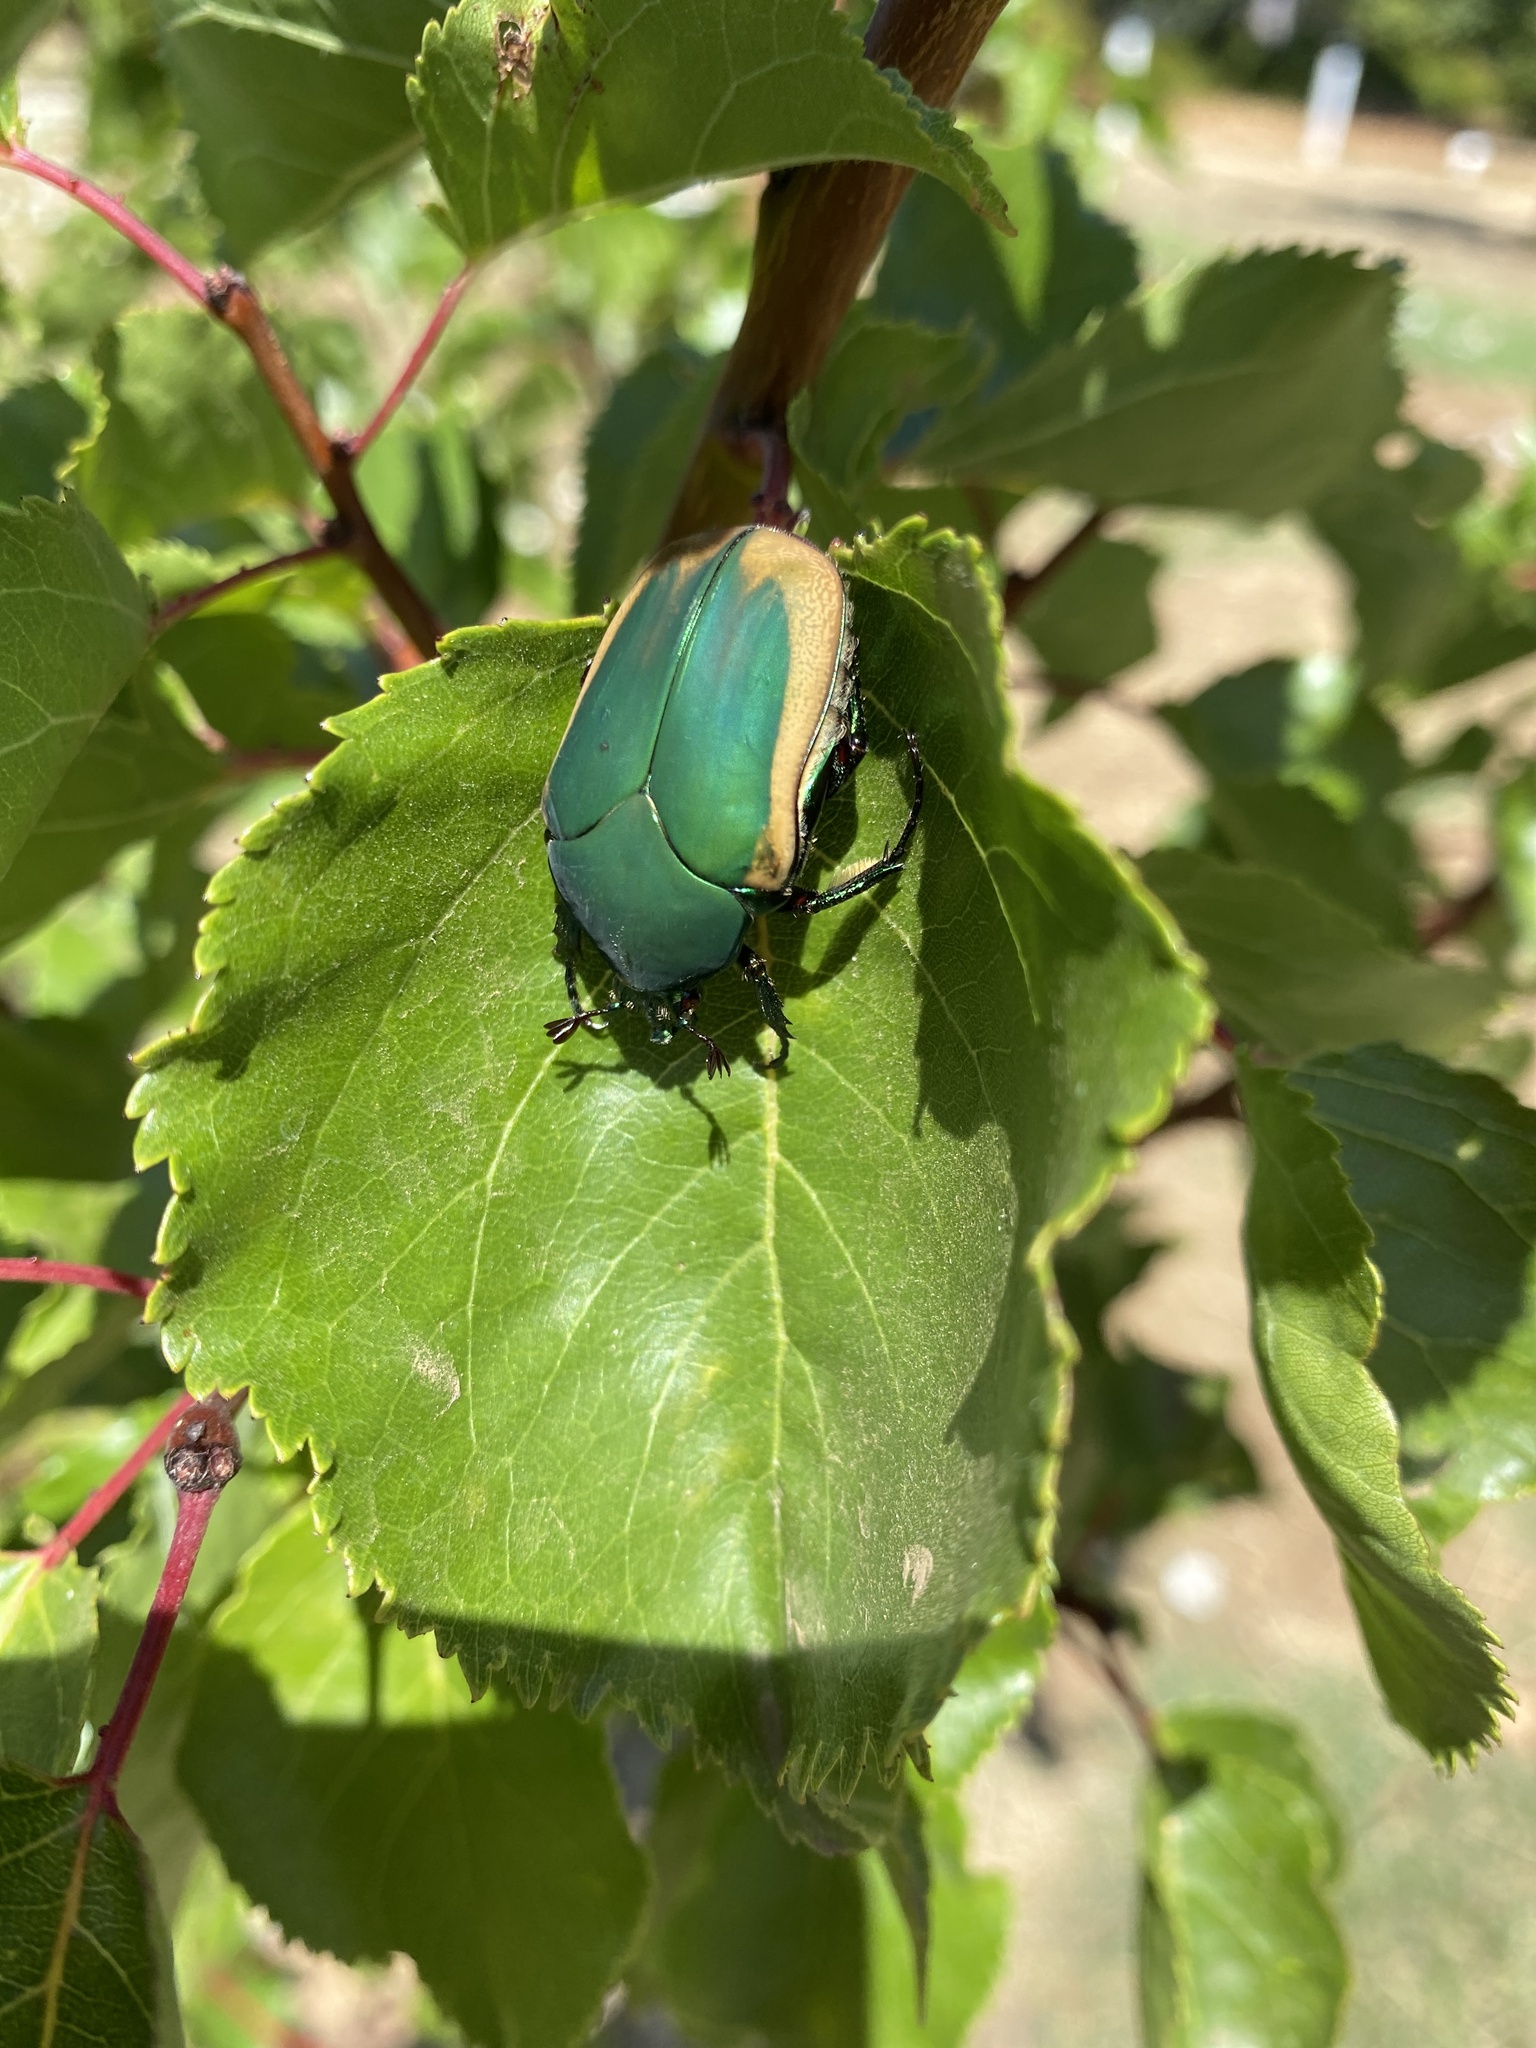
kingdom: Animalia
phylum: Arthropoda
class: Insecta
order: Coleoptera
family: Scarabaeidae
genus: Cotinis
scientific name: Cotinis mutabilis
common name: Figeater beetle
